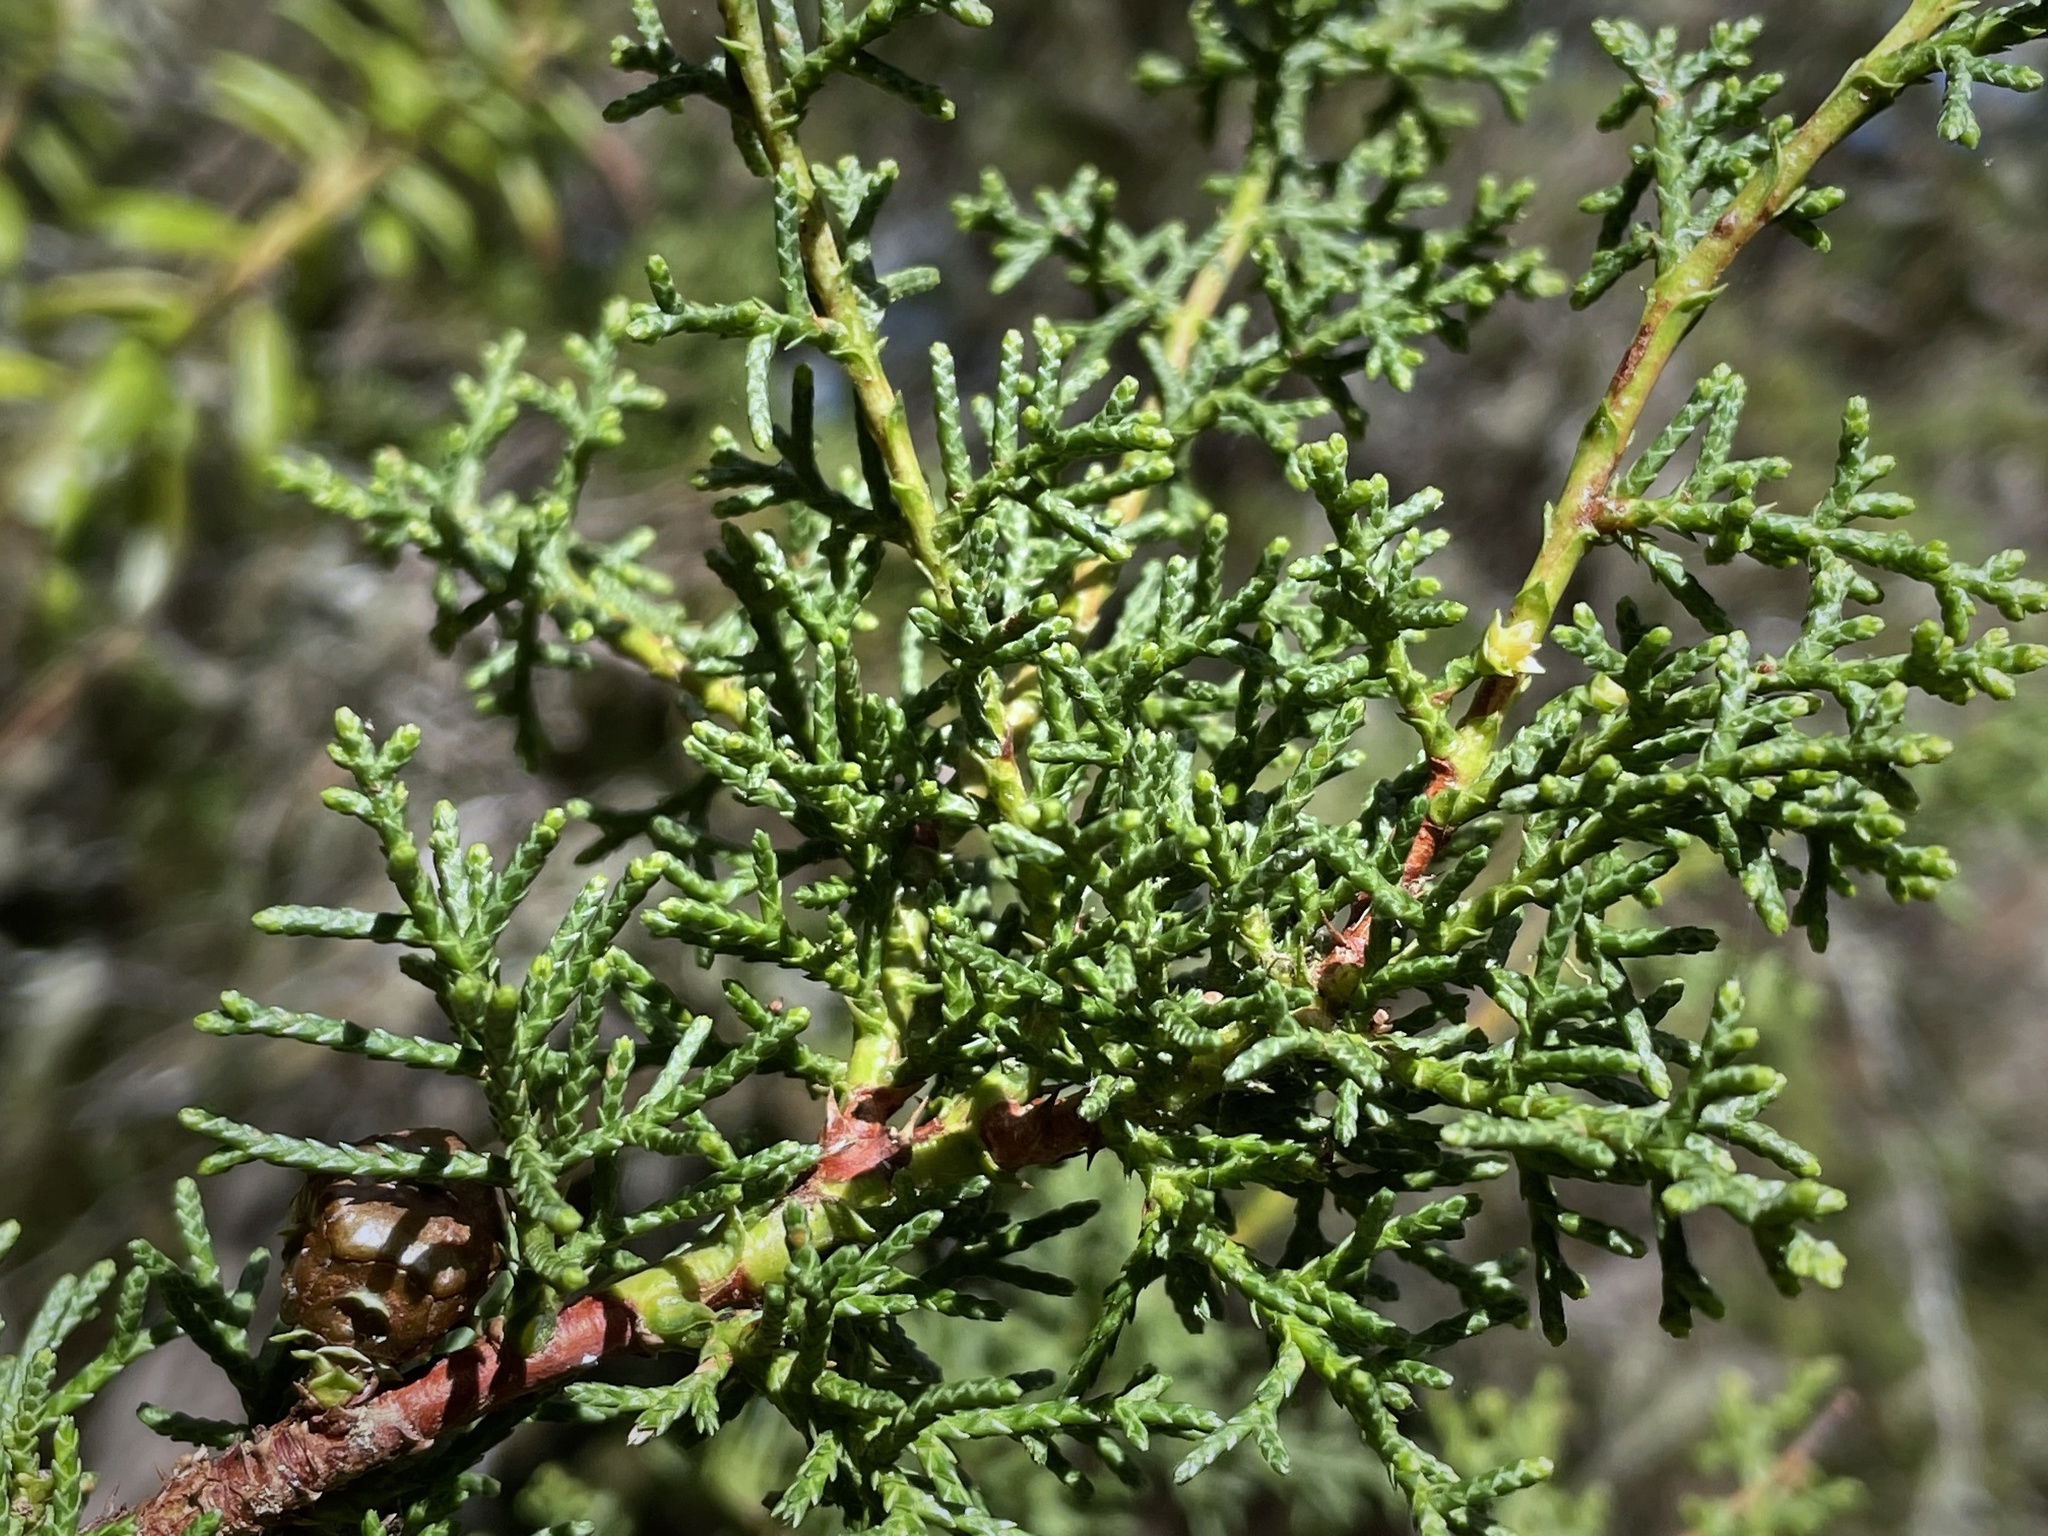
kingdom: Plantae
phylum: Tracheophyta
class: Pinopsida
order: Pinales
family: Cupressaceae
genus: Cupressus
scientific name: Cupressus goveniana
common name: Gowen cypress
